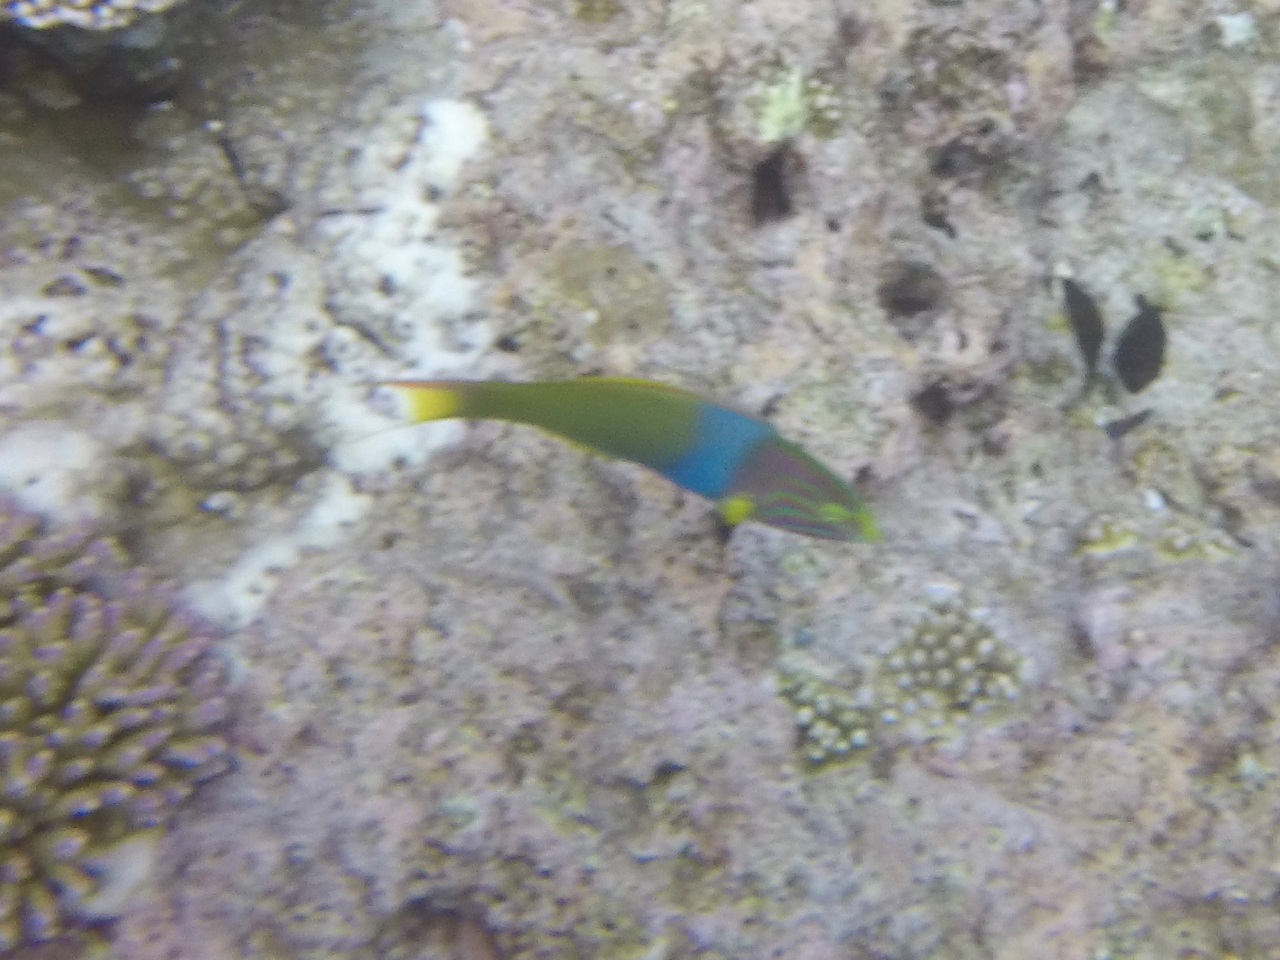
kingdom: Animalia
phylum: Chordata
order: Perciformes
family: Labridae
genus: Thalassoma
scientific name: Thalassoma lutescens
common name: Green moon wrasse
